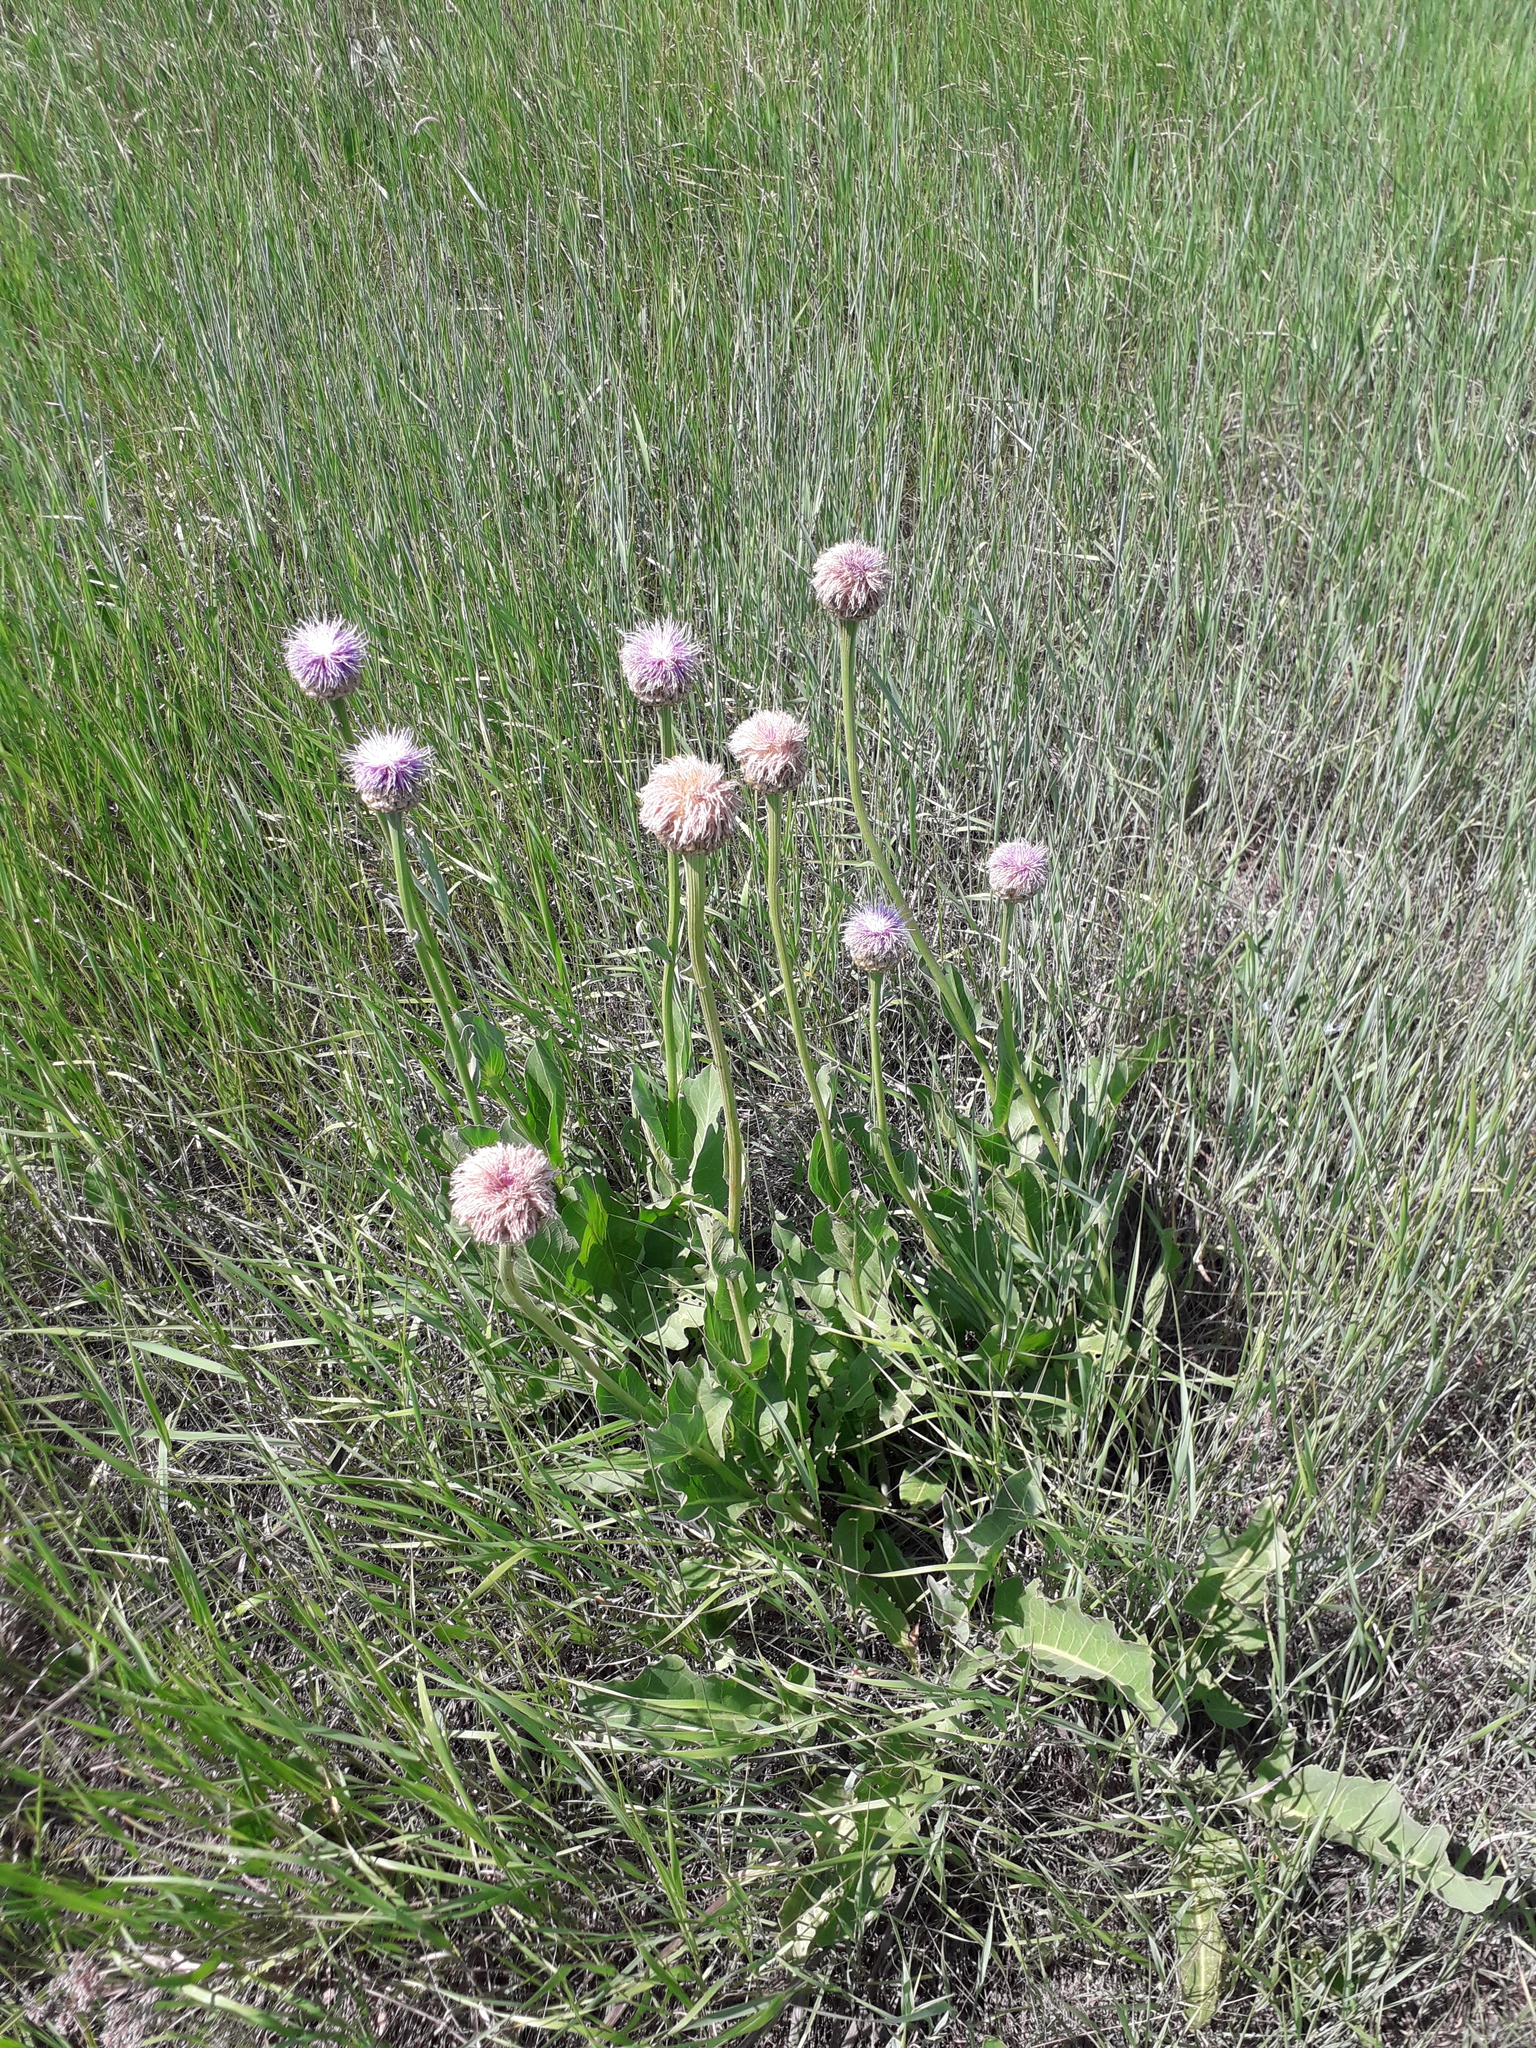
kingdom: Plantae
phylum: Tracheophyta
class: Magnoliopsida
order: Asterales
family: Asteraceae
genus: Leuzea
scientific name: Leuzea carthamoides
